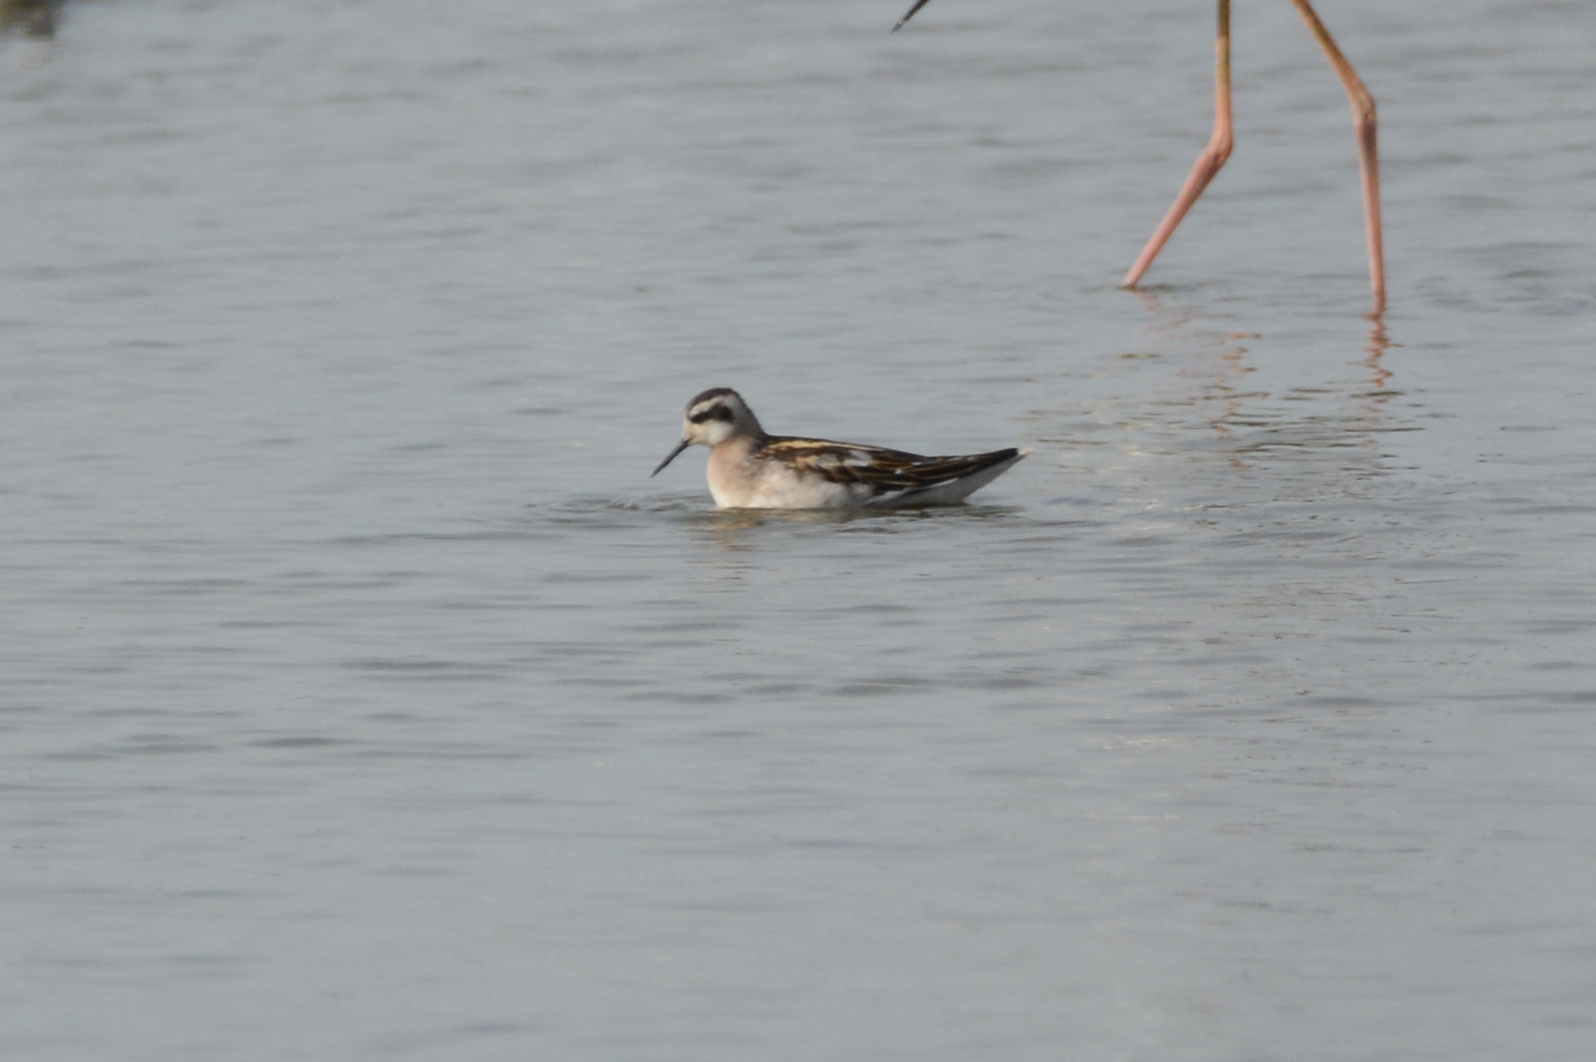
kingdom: Animalia
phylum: Chordata
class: Aves
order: Charadriiformes
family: Scolopacidae
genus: Phalaropus
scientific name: Phalaropus lobatus
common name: Red-necked phalarope
